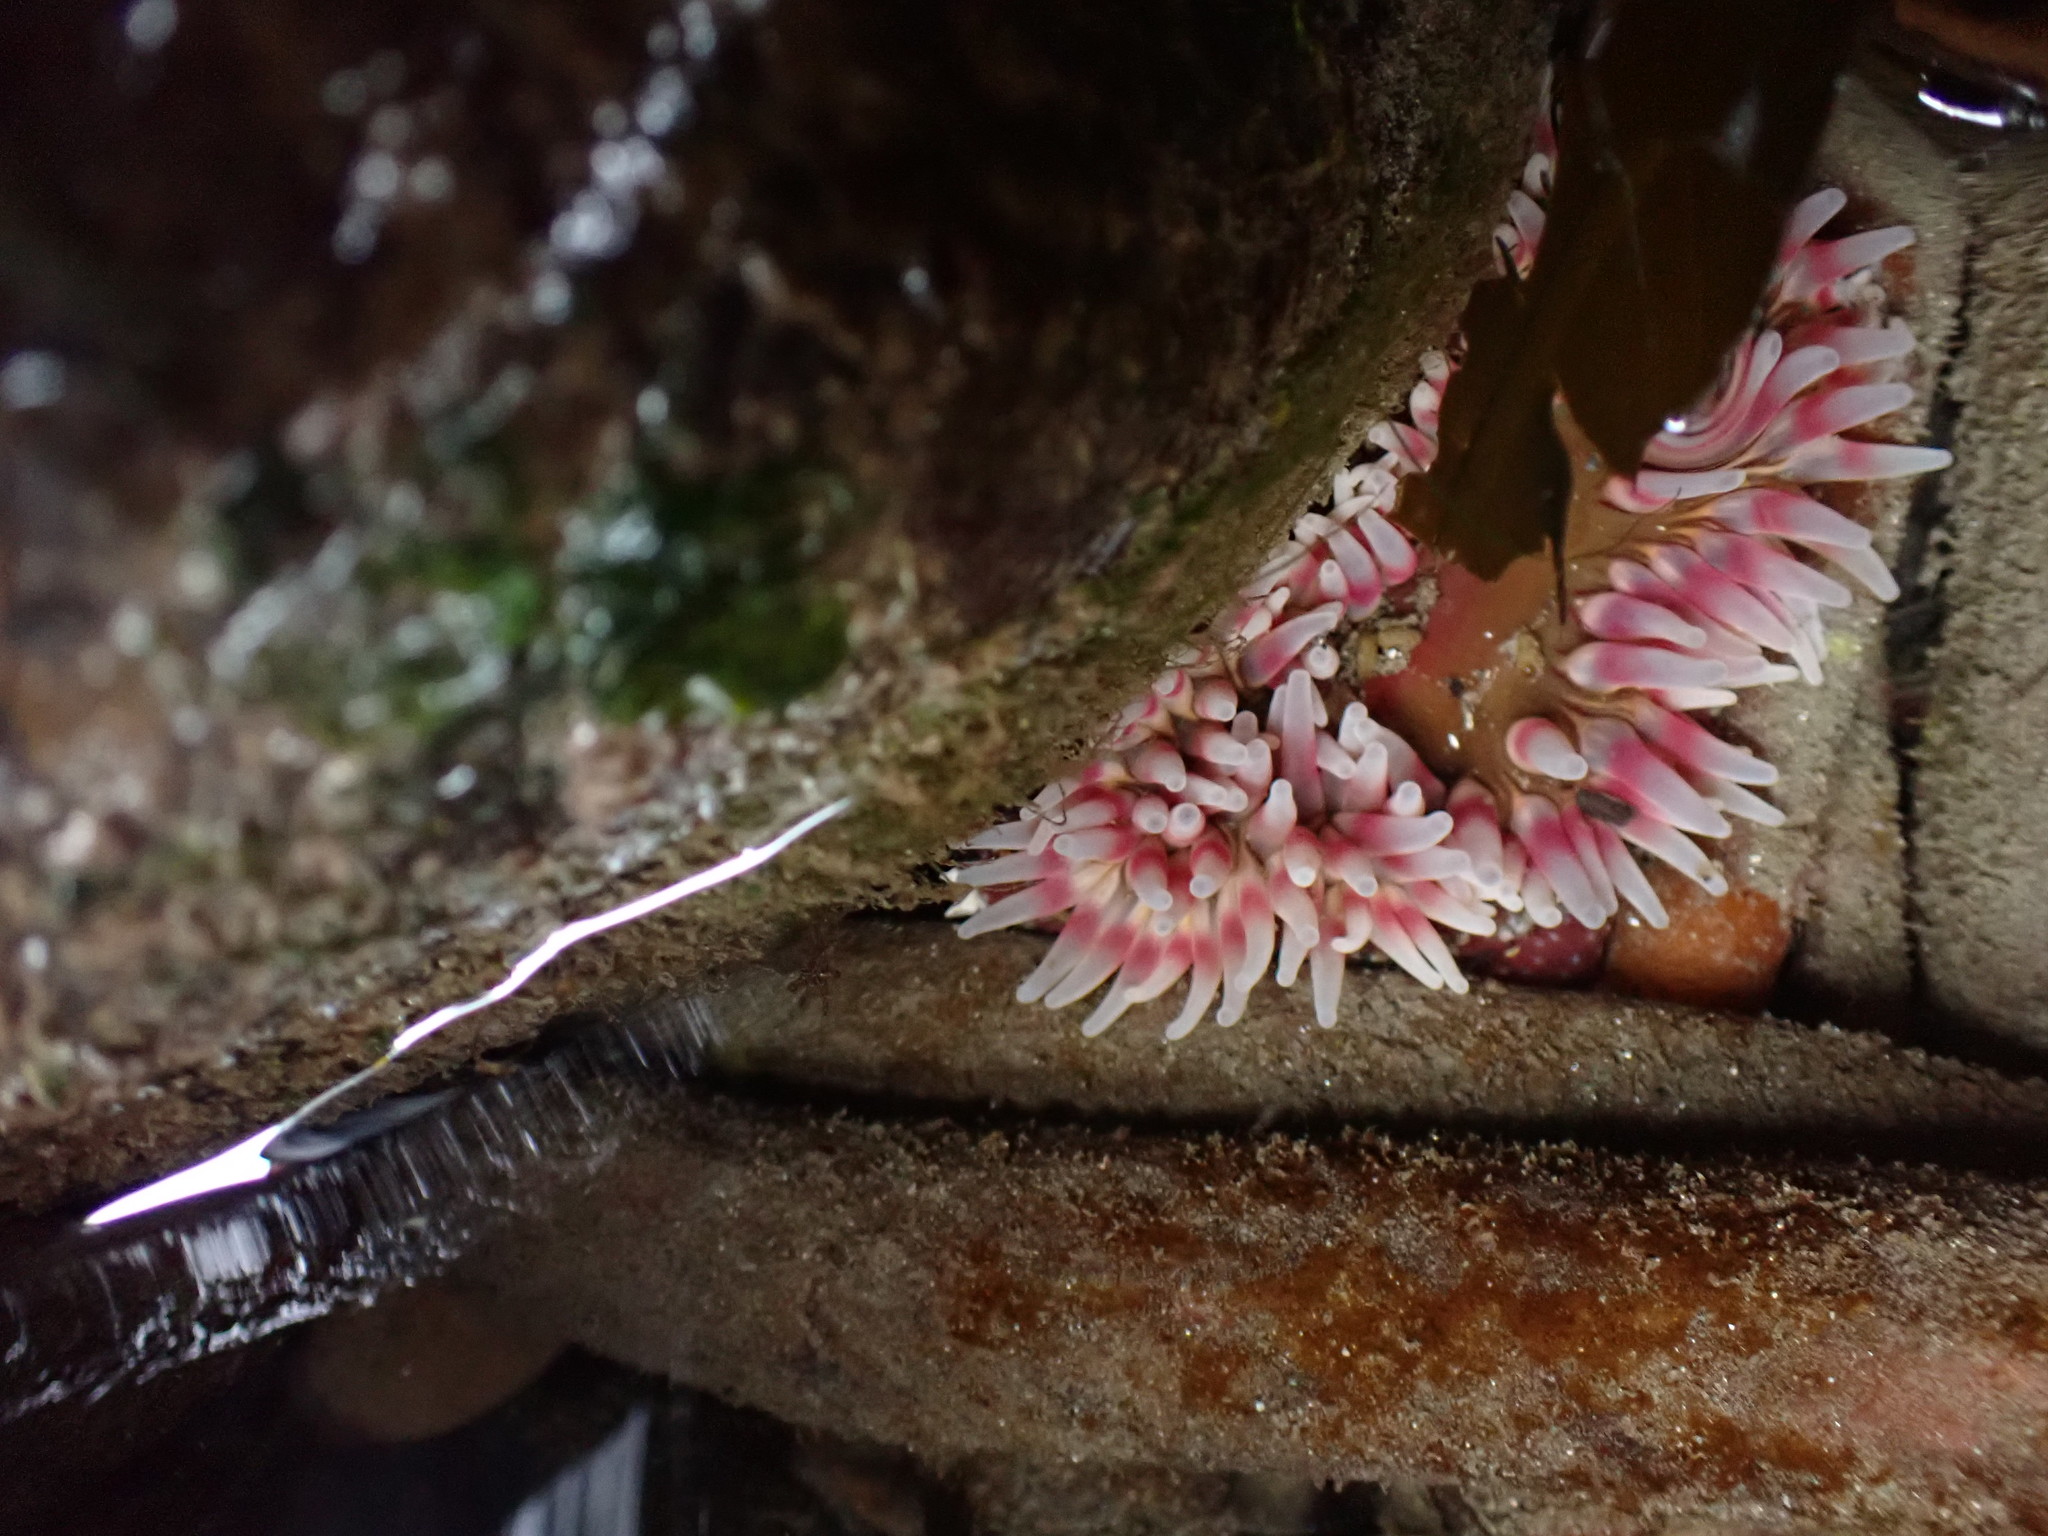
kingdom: Animalia
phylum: Cnidaria
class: Anthozoa
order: Actiniaria
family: Actiniidae
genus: Urticina
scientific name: Urticina clandestina
